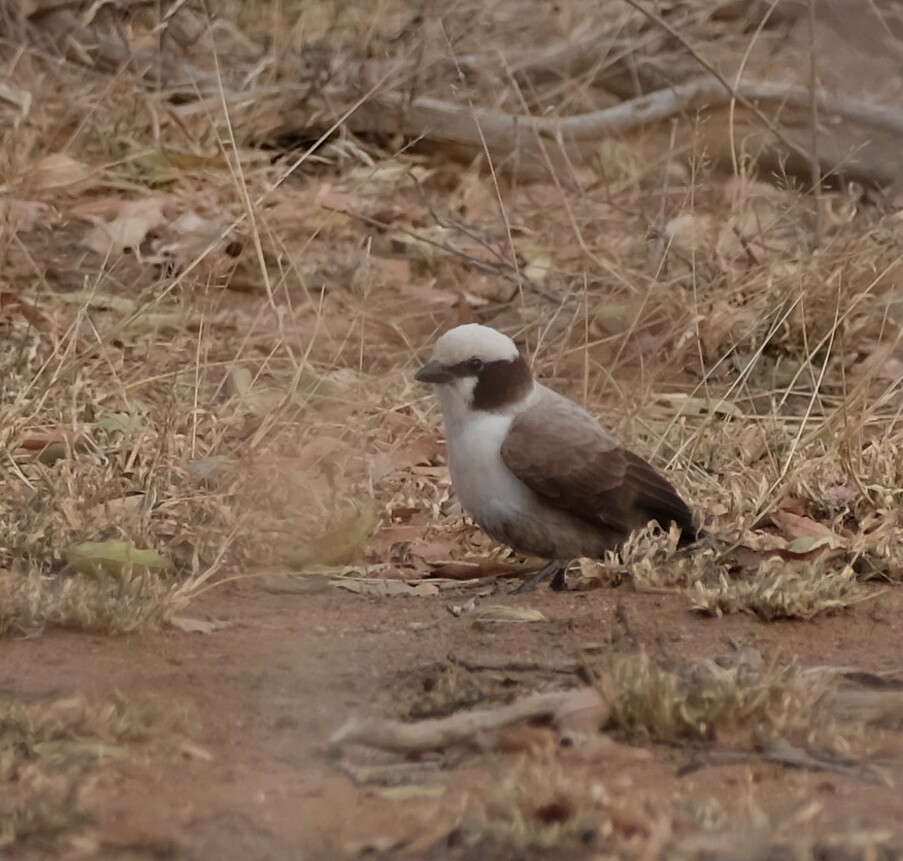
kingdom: Animalia
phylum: Chordata
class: Aves
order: Passeriformes
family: Laniidae
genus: Eurocephalus
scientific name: Eurocephalus anguitimens
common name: Southern white-crowned shrike
